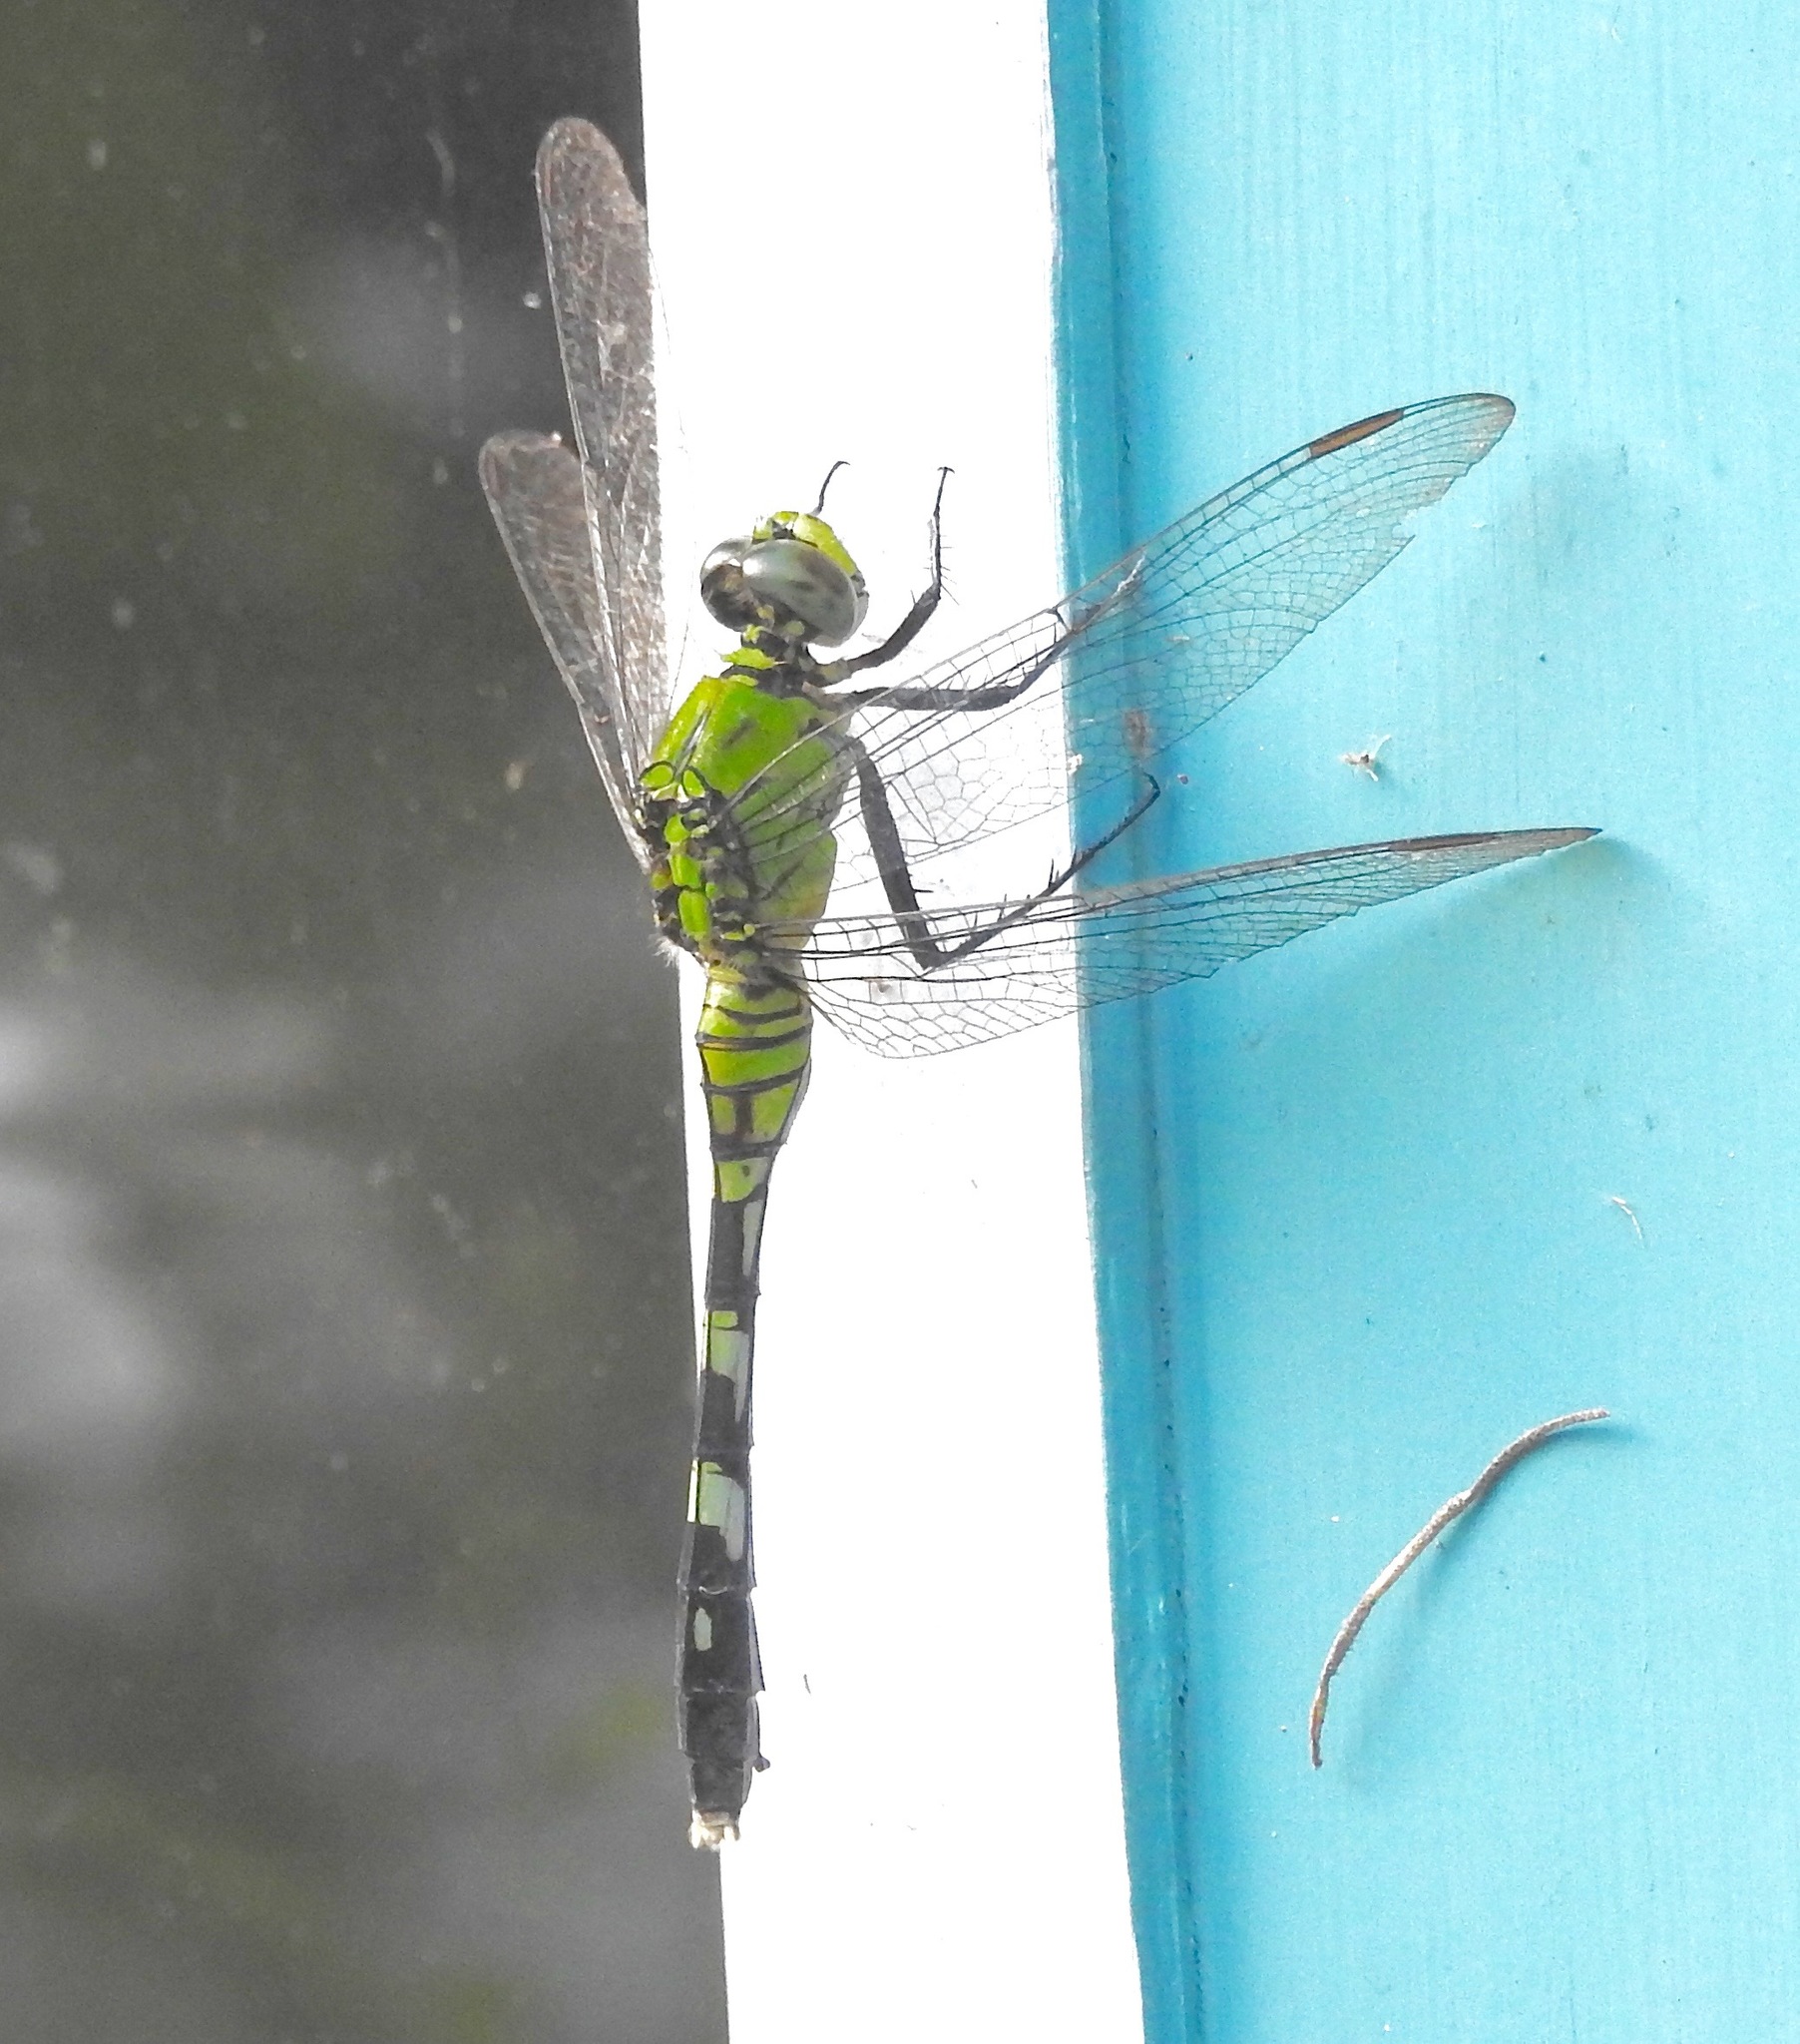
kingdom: Animalia
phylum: Arthropoda
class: Insecta
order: Odonata
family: Libellulidae
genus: Erythemis
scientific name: Erythemis simplicicollis
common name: Eastern pondhawk
